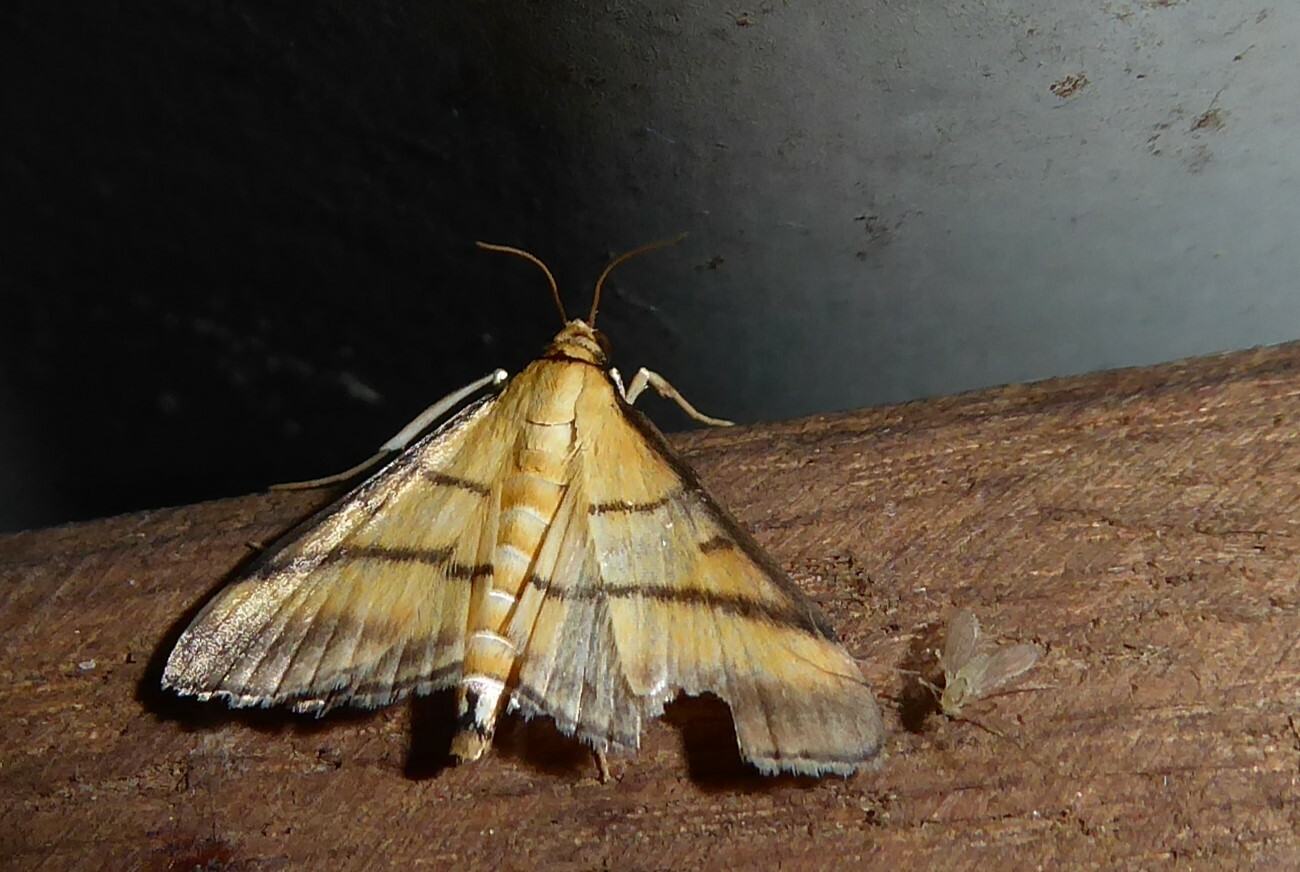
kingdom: Animalia
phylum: Arthropoda
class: Insecta
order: Lepidoptera
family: Crambidae
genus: Cnaphalocrocis
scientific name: Cnaphalocrocis medinalis
